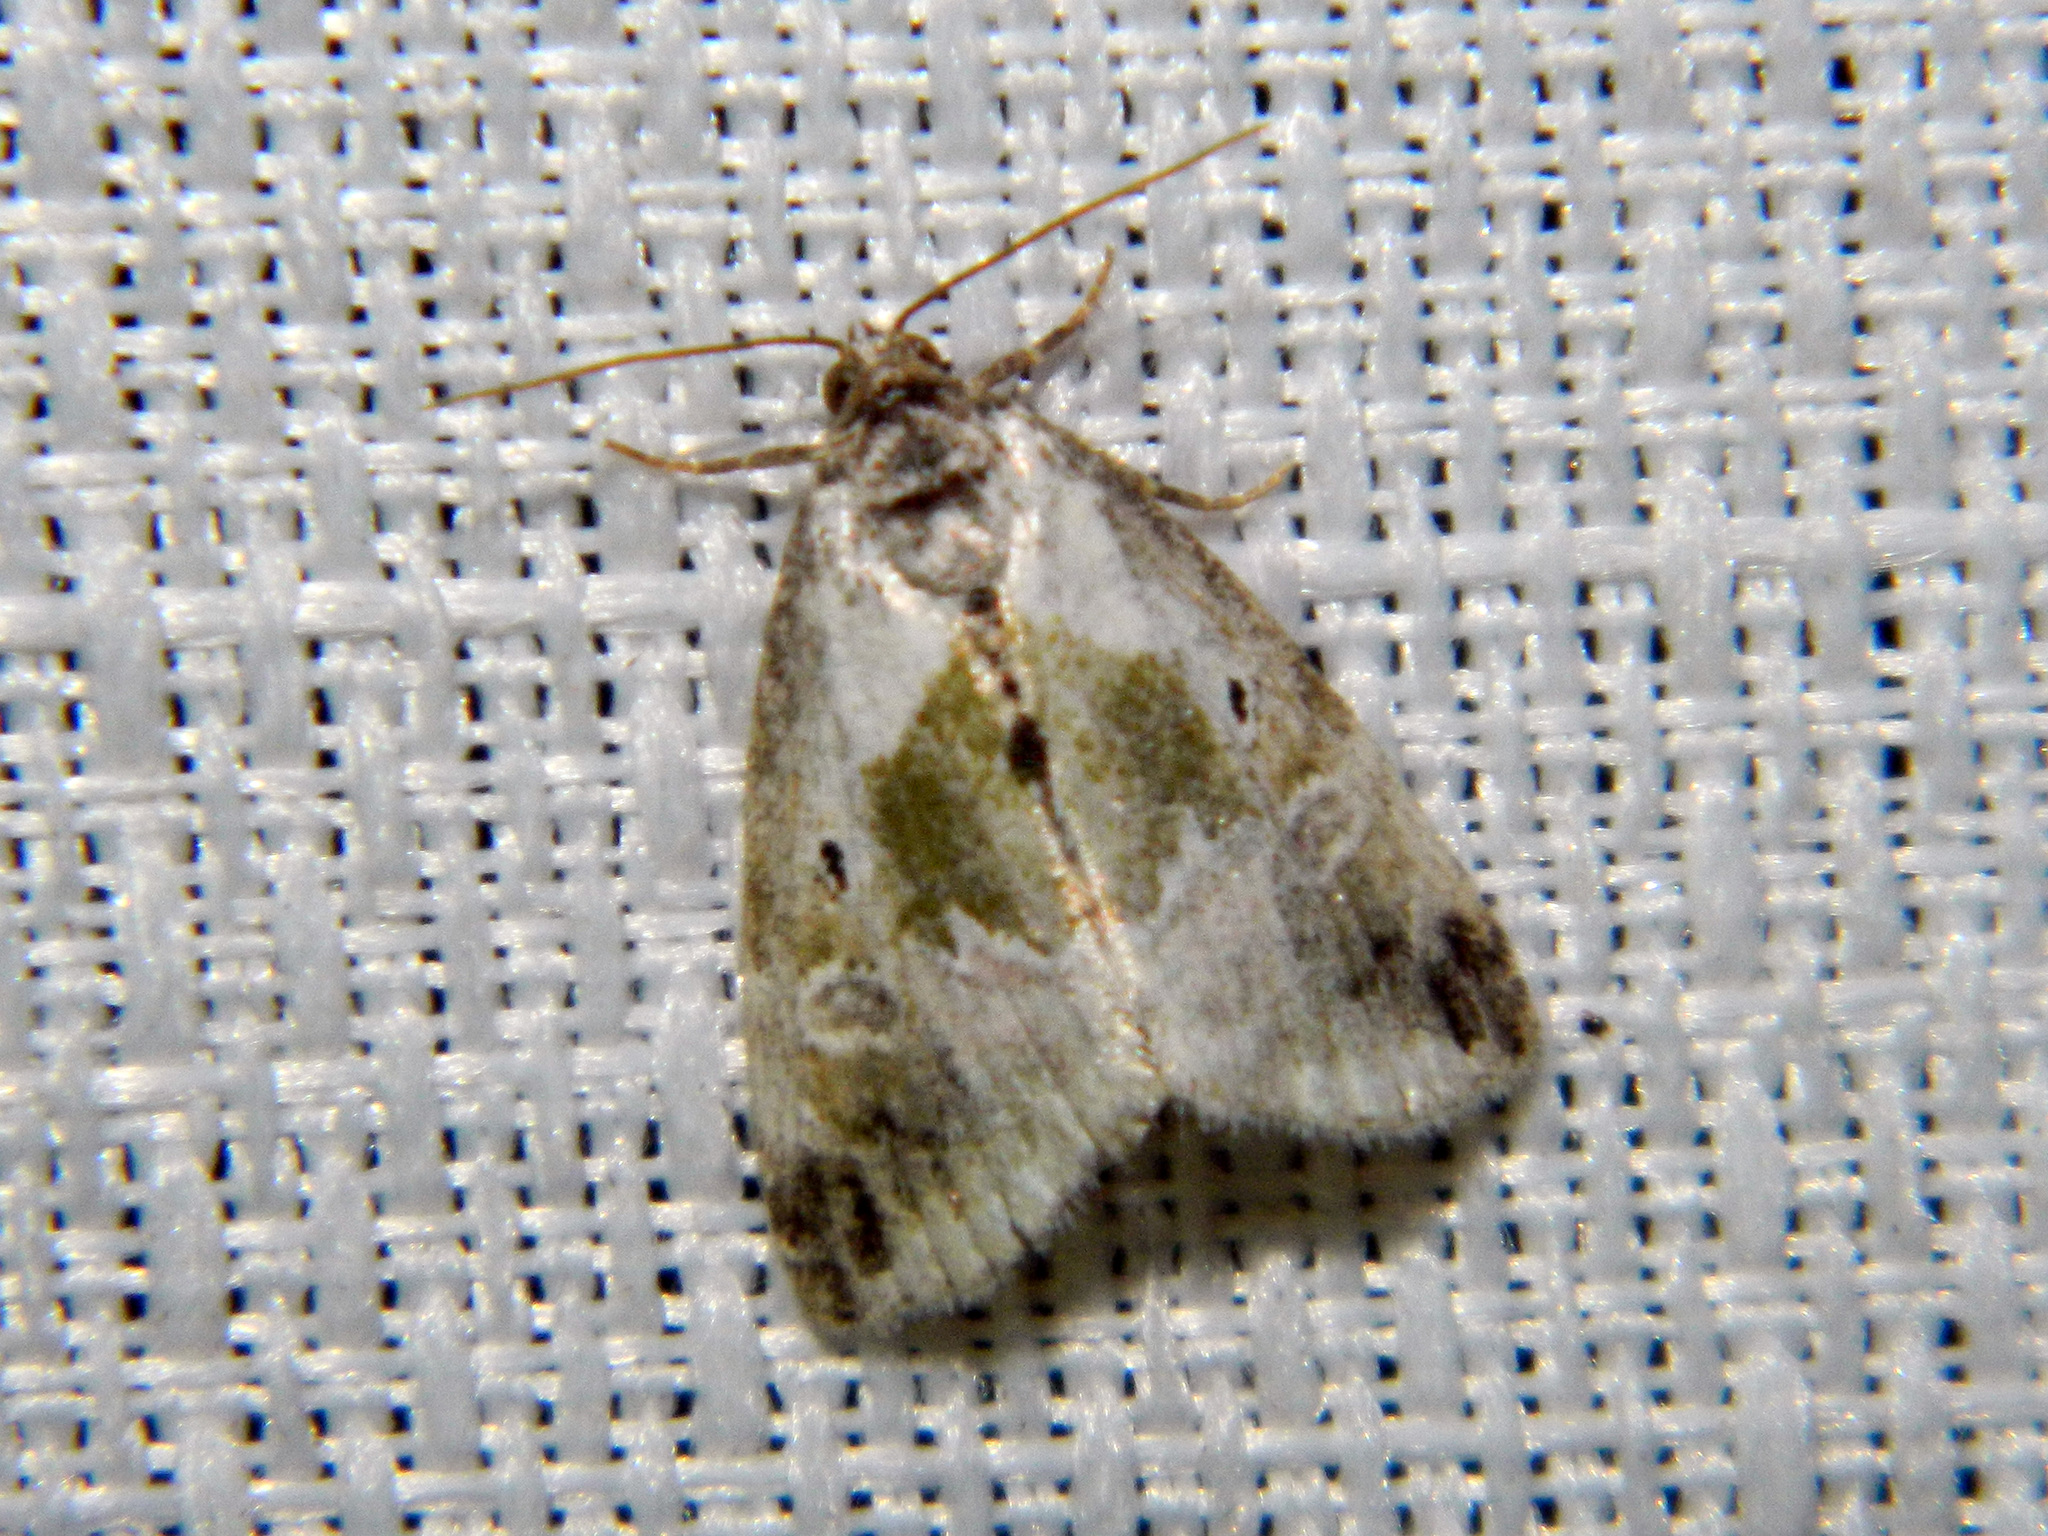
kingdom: Animalia
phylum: Arthropoda
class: Insecta
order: Lepidoptera
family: Noctuidae
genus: Maliattha
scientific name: Maliattha synochitis
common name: Black-dotted glyph
